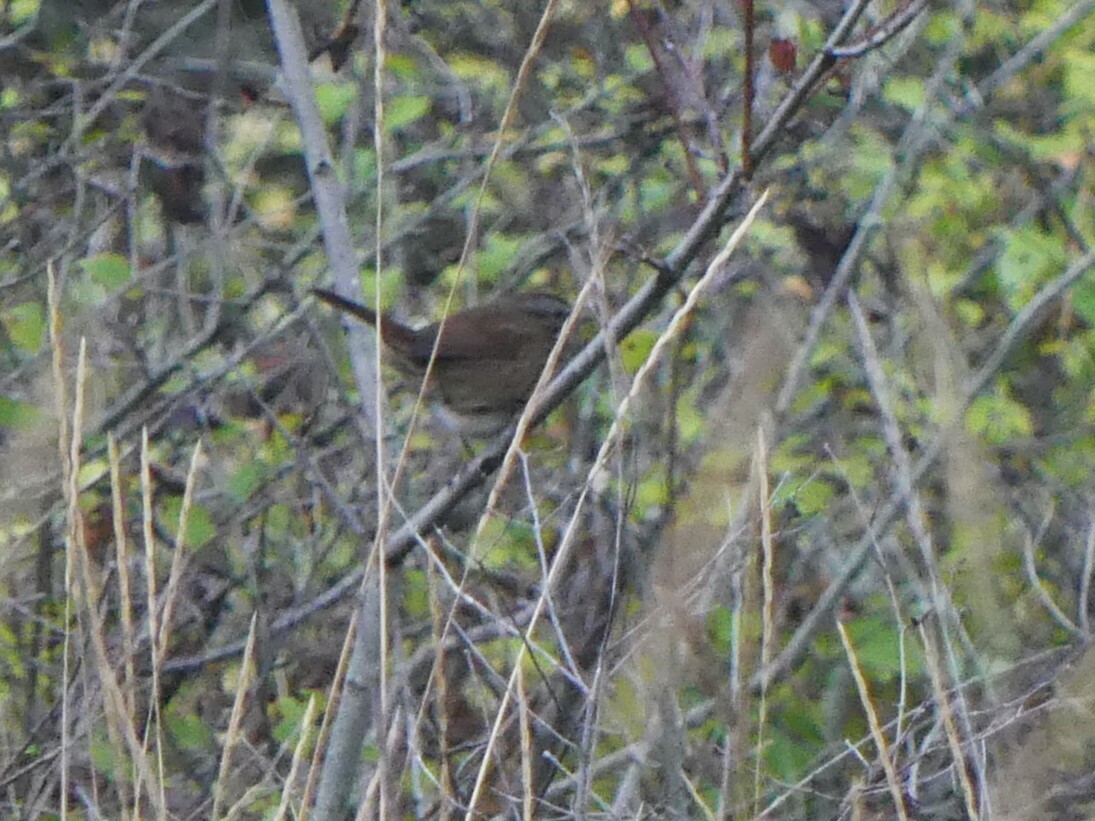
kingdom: Animalia
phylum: Chordata
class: Aves
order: Passeriformes
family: Passerellidae
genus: Melospiza
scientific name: Melospiza melodia
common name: Song sparrow
